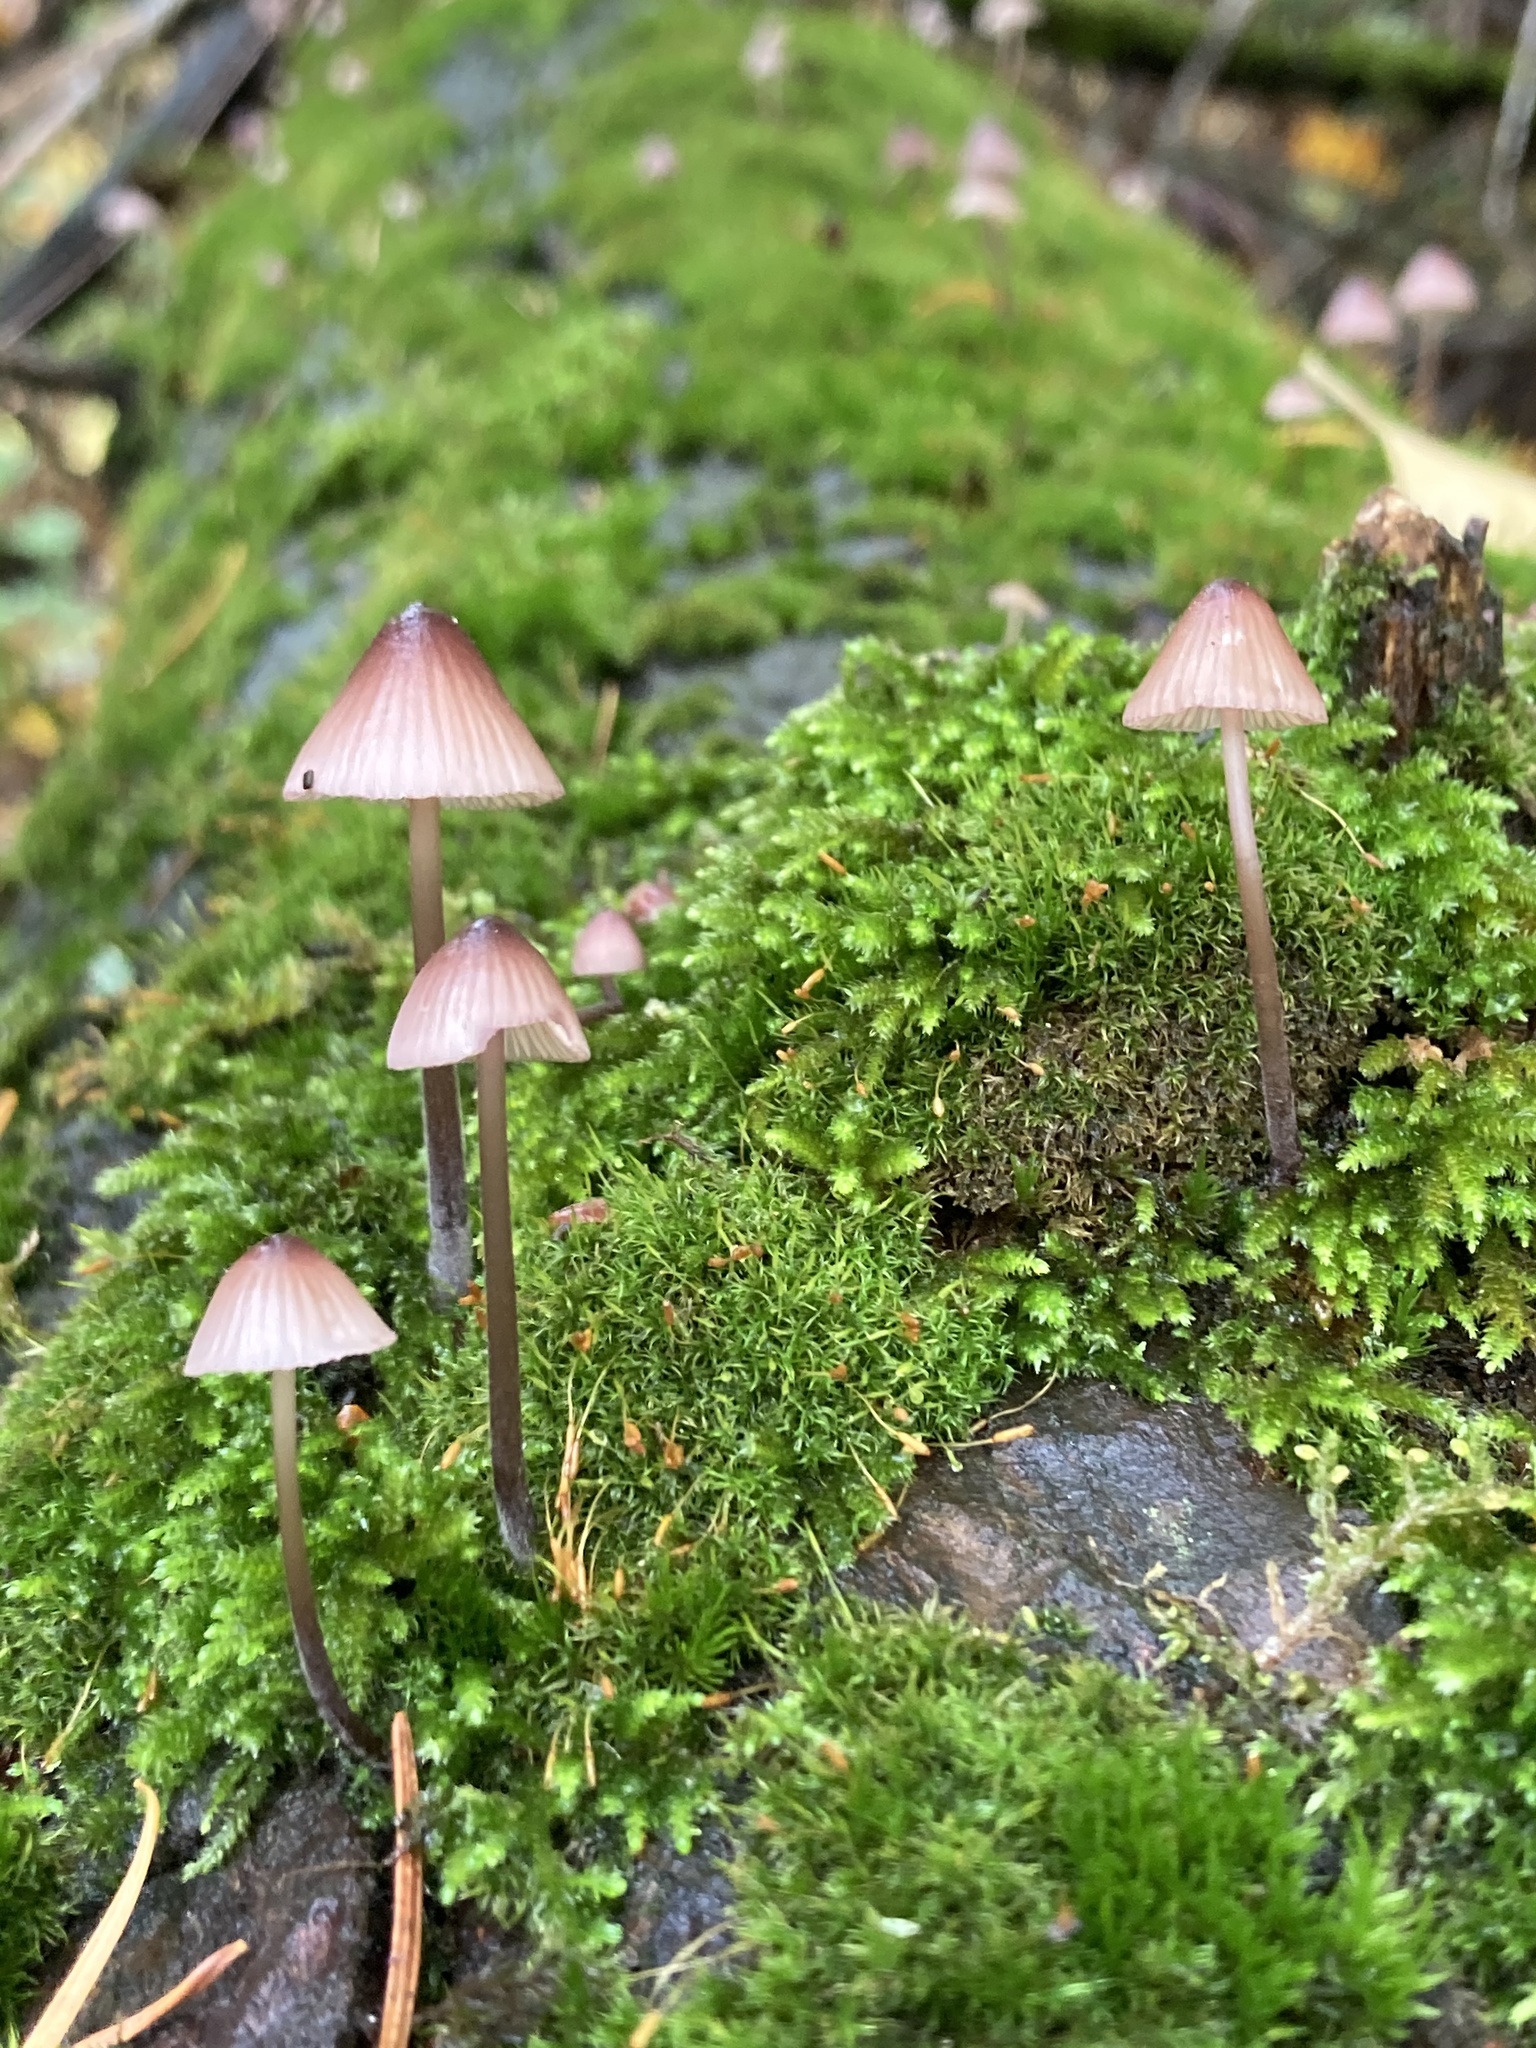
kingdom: Fungi
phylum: Basidiomycota
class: Agaricomycetes
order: Agaricales
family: Mycenaceae
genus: Mycena
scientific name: Mycena purpureofusca
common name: Purple edge bonnet
